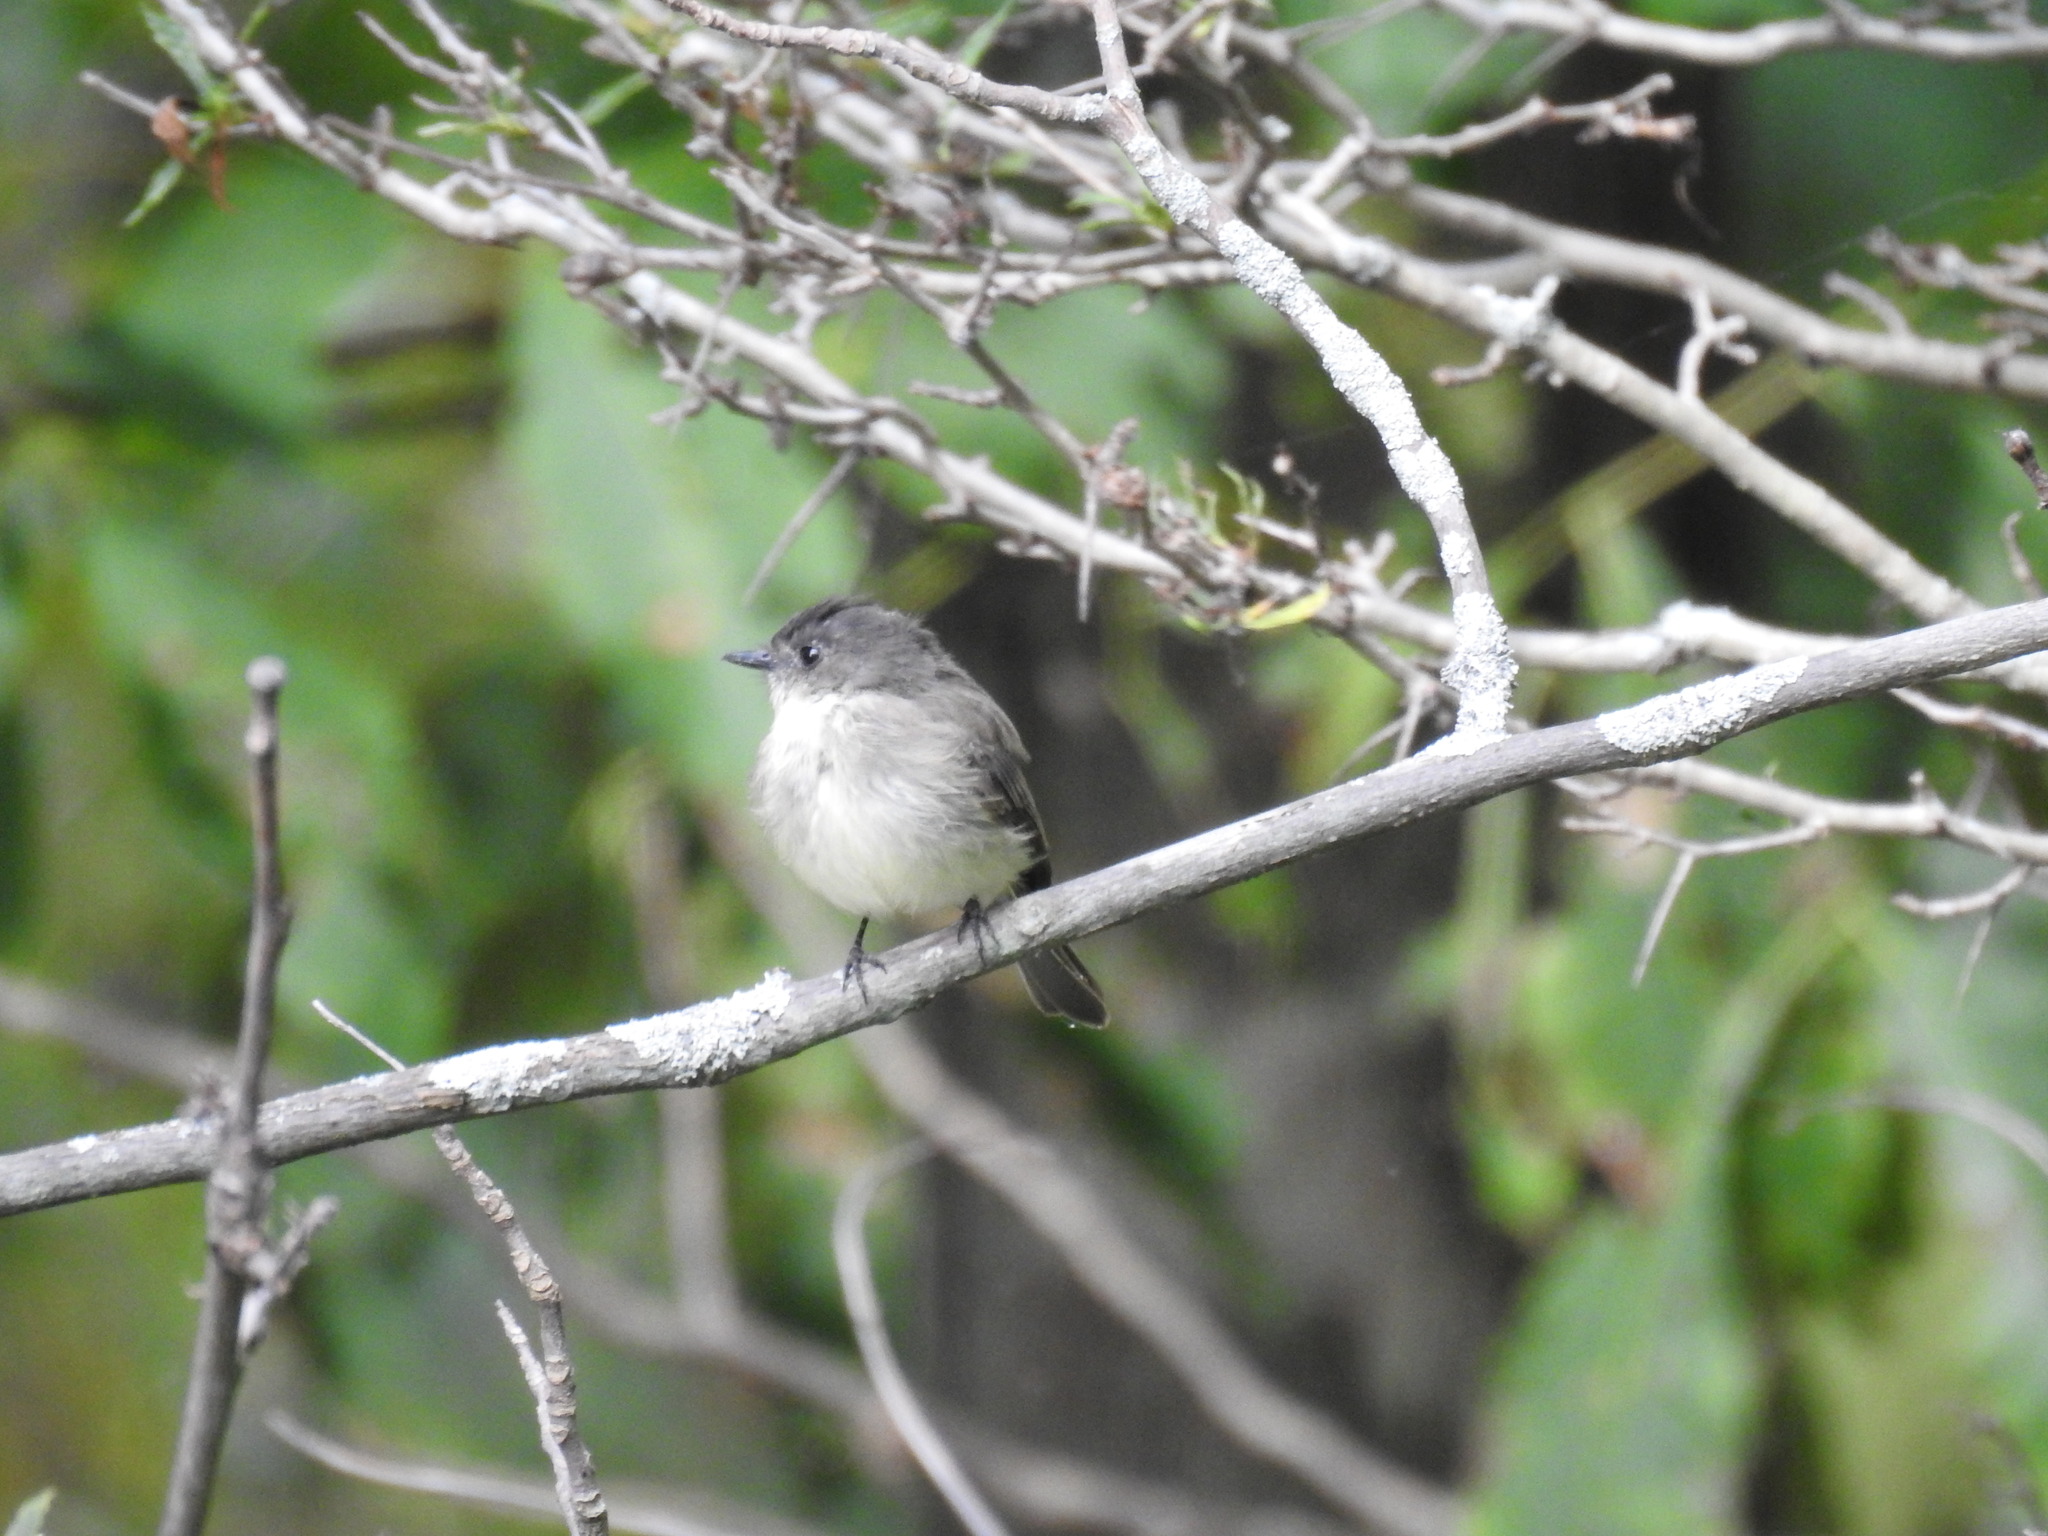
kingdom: Animalia
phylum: Chordata
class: Aves
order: Passeriformes
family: Tyrannidae
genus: Sayornis
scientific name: Sayornis phoebe
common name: Eastern phoebe
